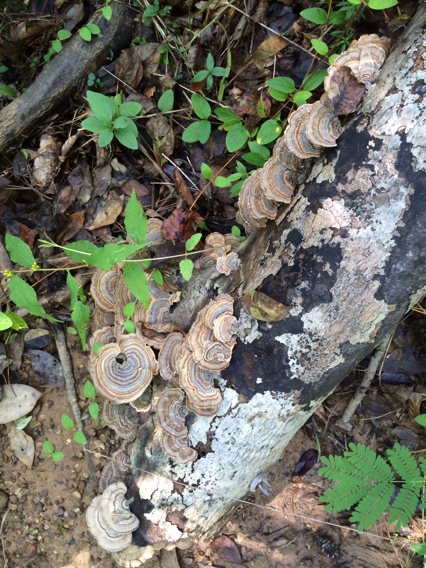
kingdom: Fungi
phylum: Basidiomycota
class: Agaricomycetes
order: Polyporales
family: Polyporaceae
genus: Trametes
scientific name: Trametes versicolor
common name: Turkeytail
